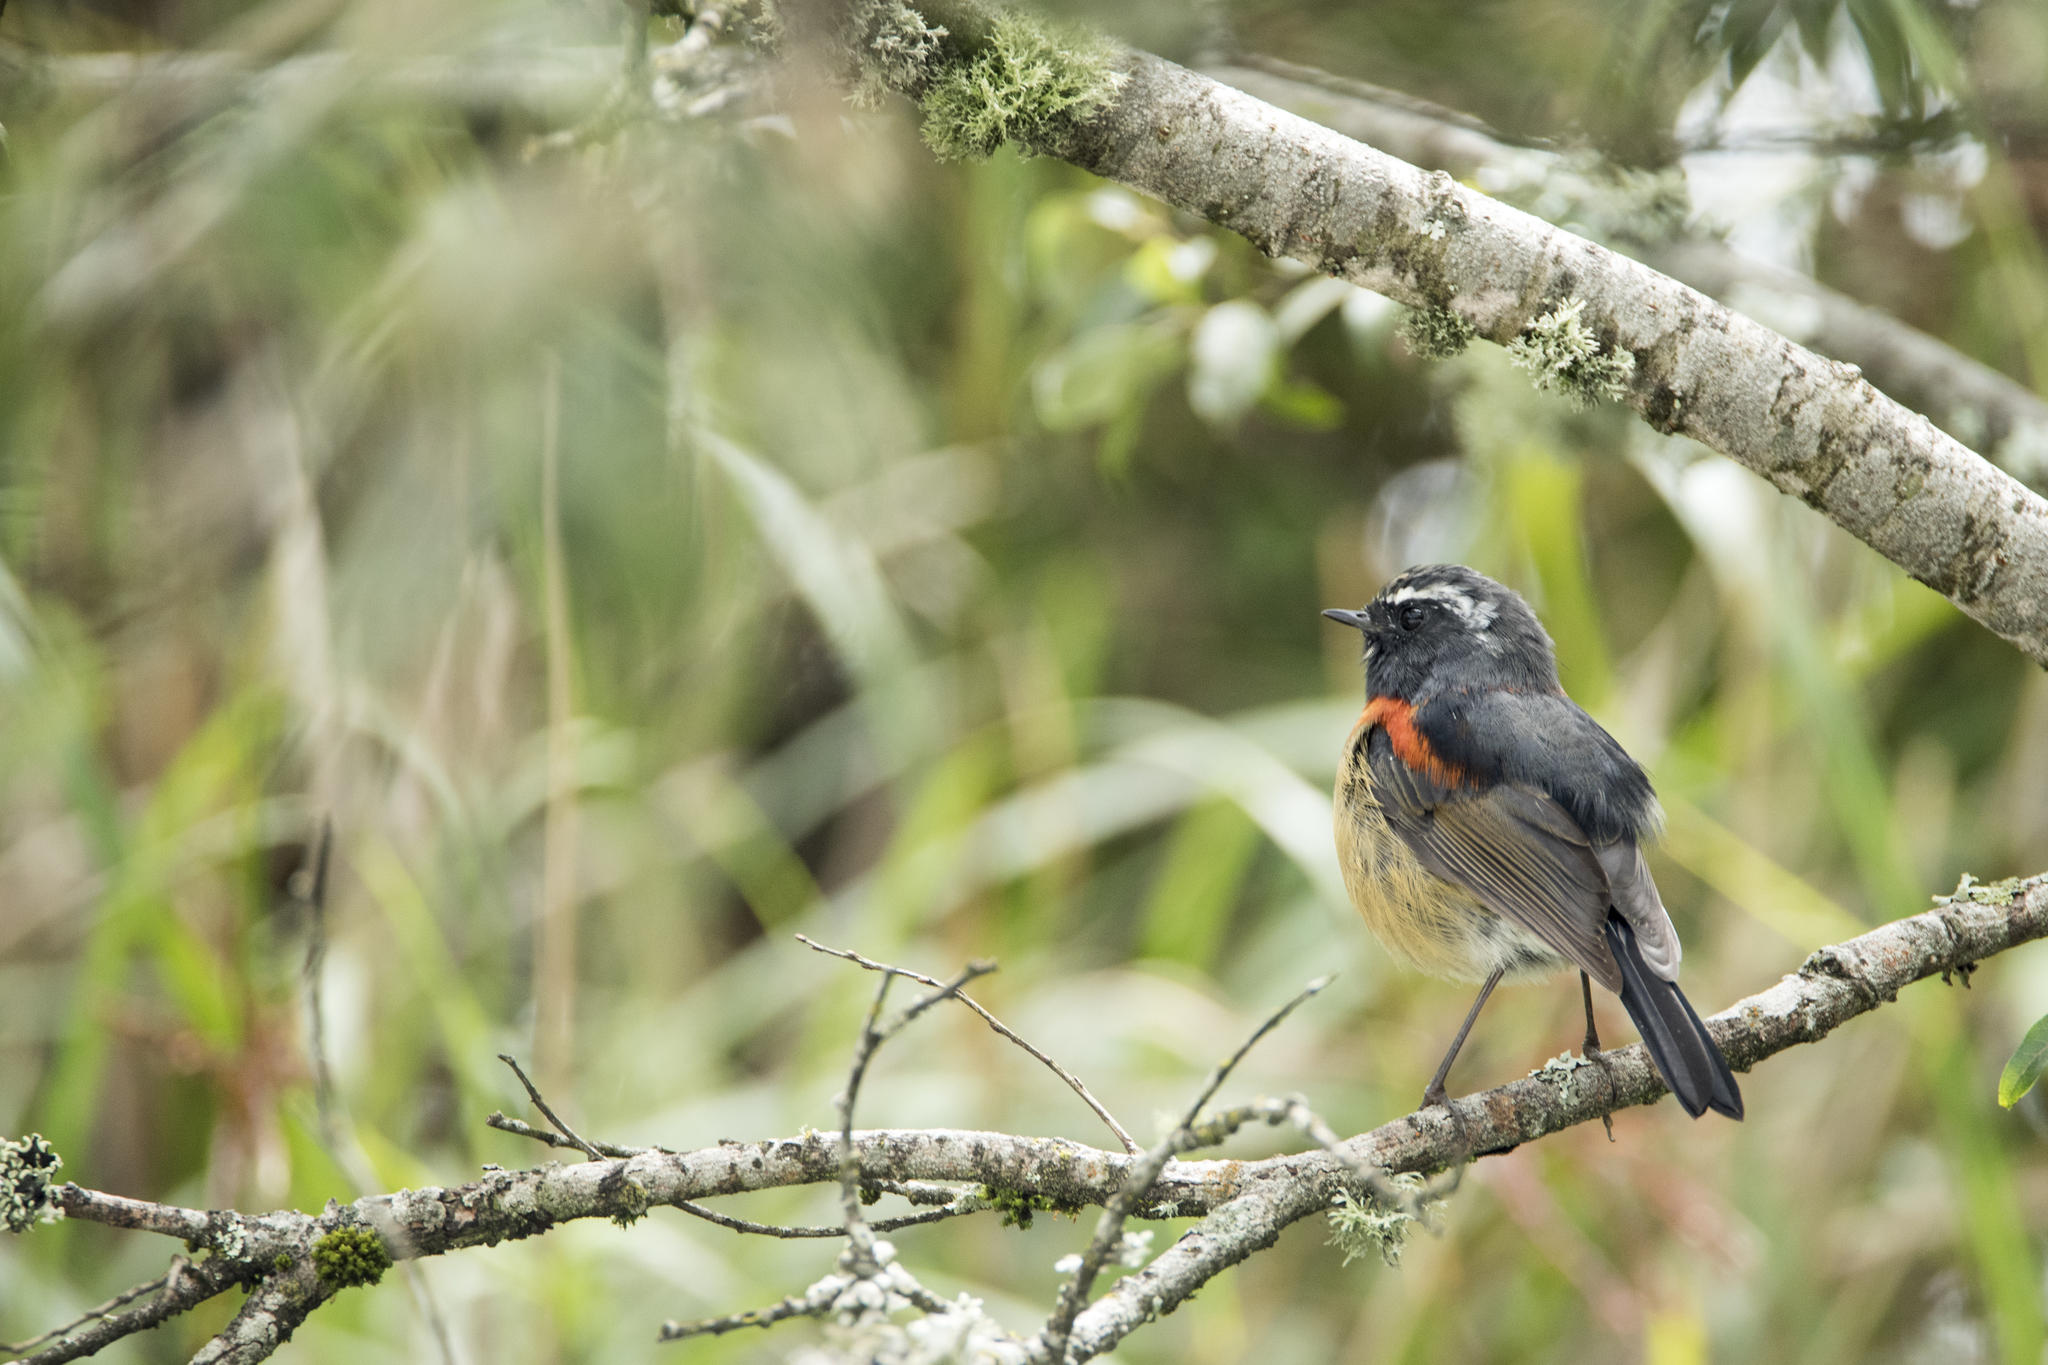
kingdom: Animalia
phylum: Chordata
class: Aves
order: Passeriformes
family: Muscicapidae
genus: Tarsiger
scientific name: Tarsiger johnstoniae
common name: Collared bush robin
